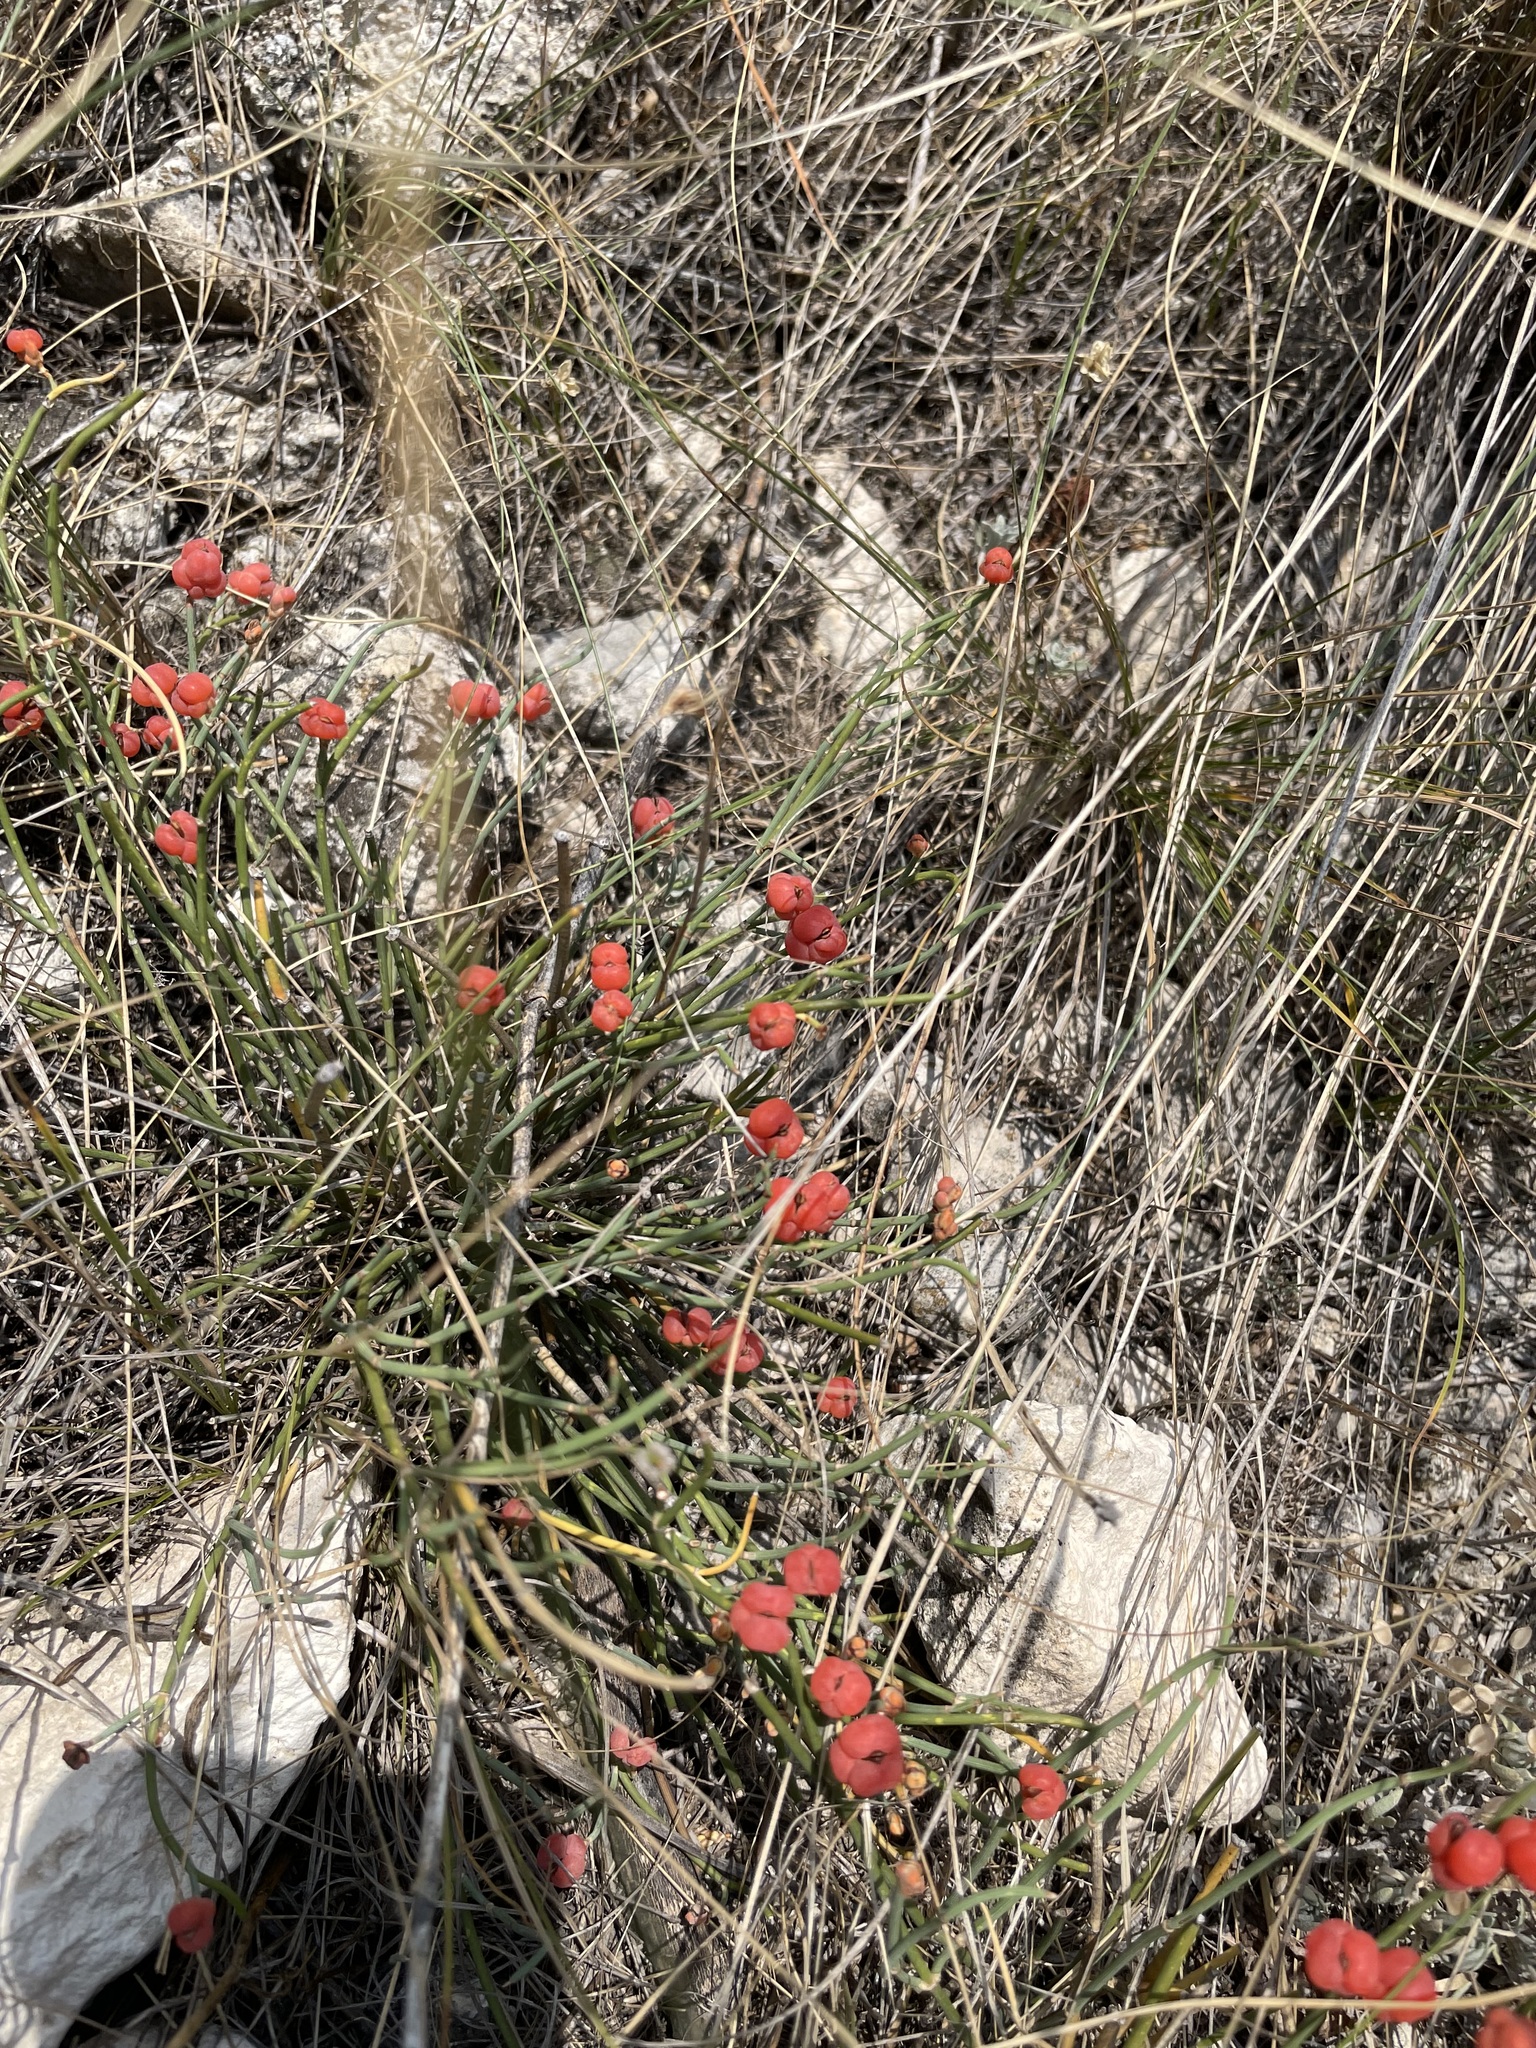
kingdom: Plantae
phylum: Tracheophyta
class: Gnetopsida
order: Ephedrales
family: Ephedraceae
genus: Ephedra
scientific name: Ephedra distachya
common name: Sea grape
